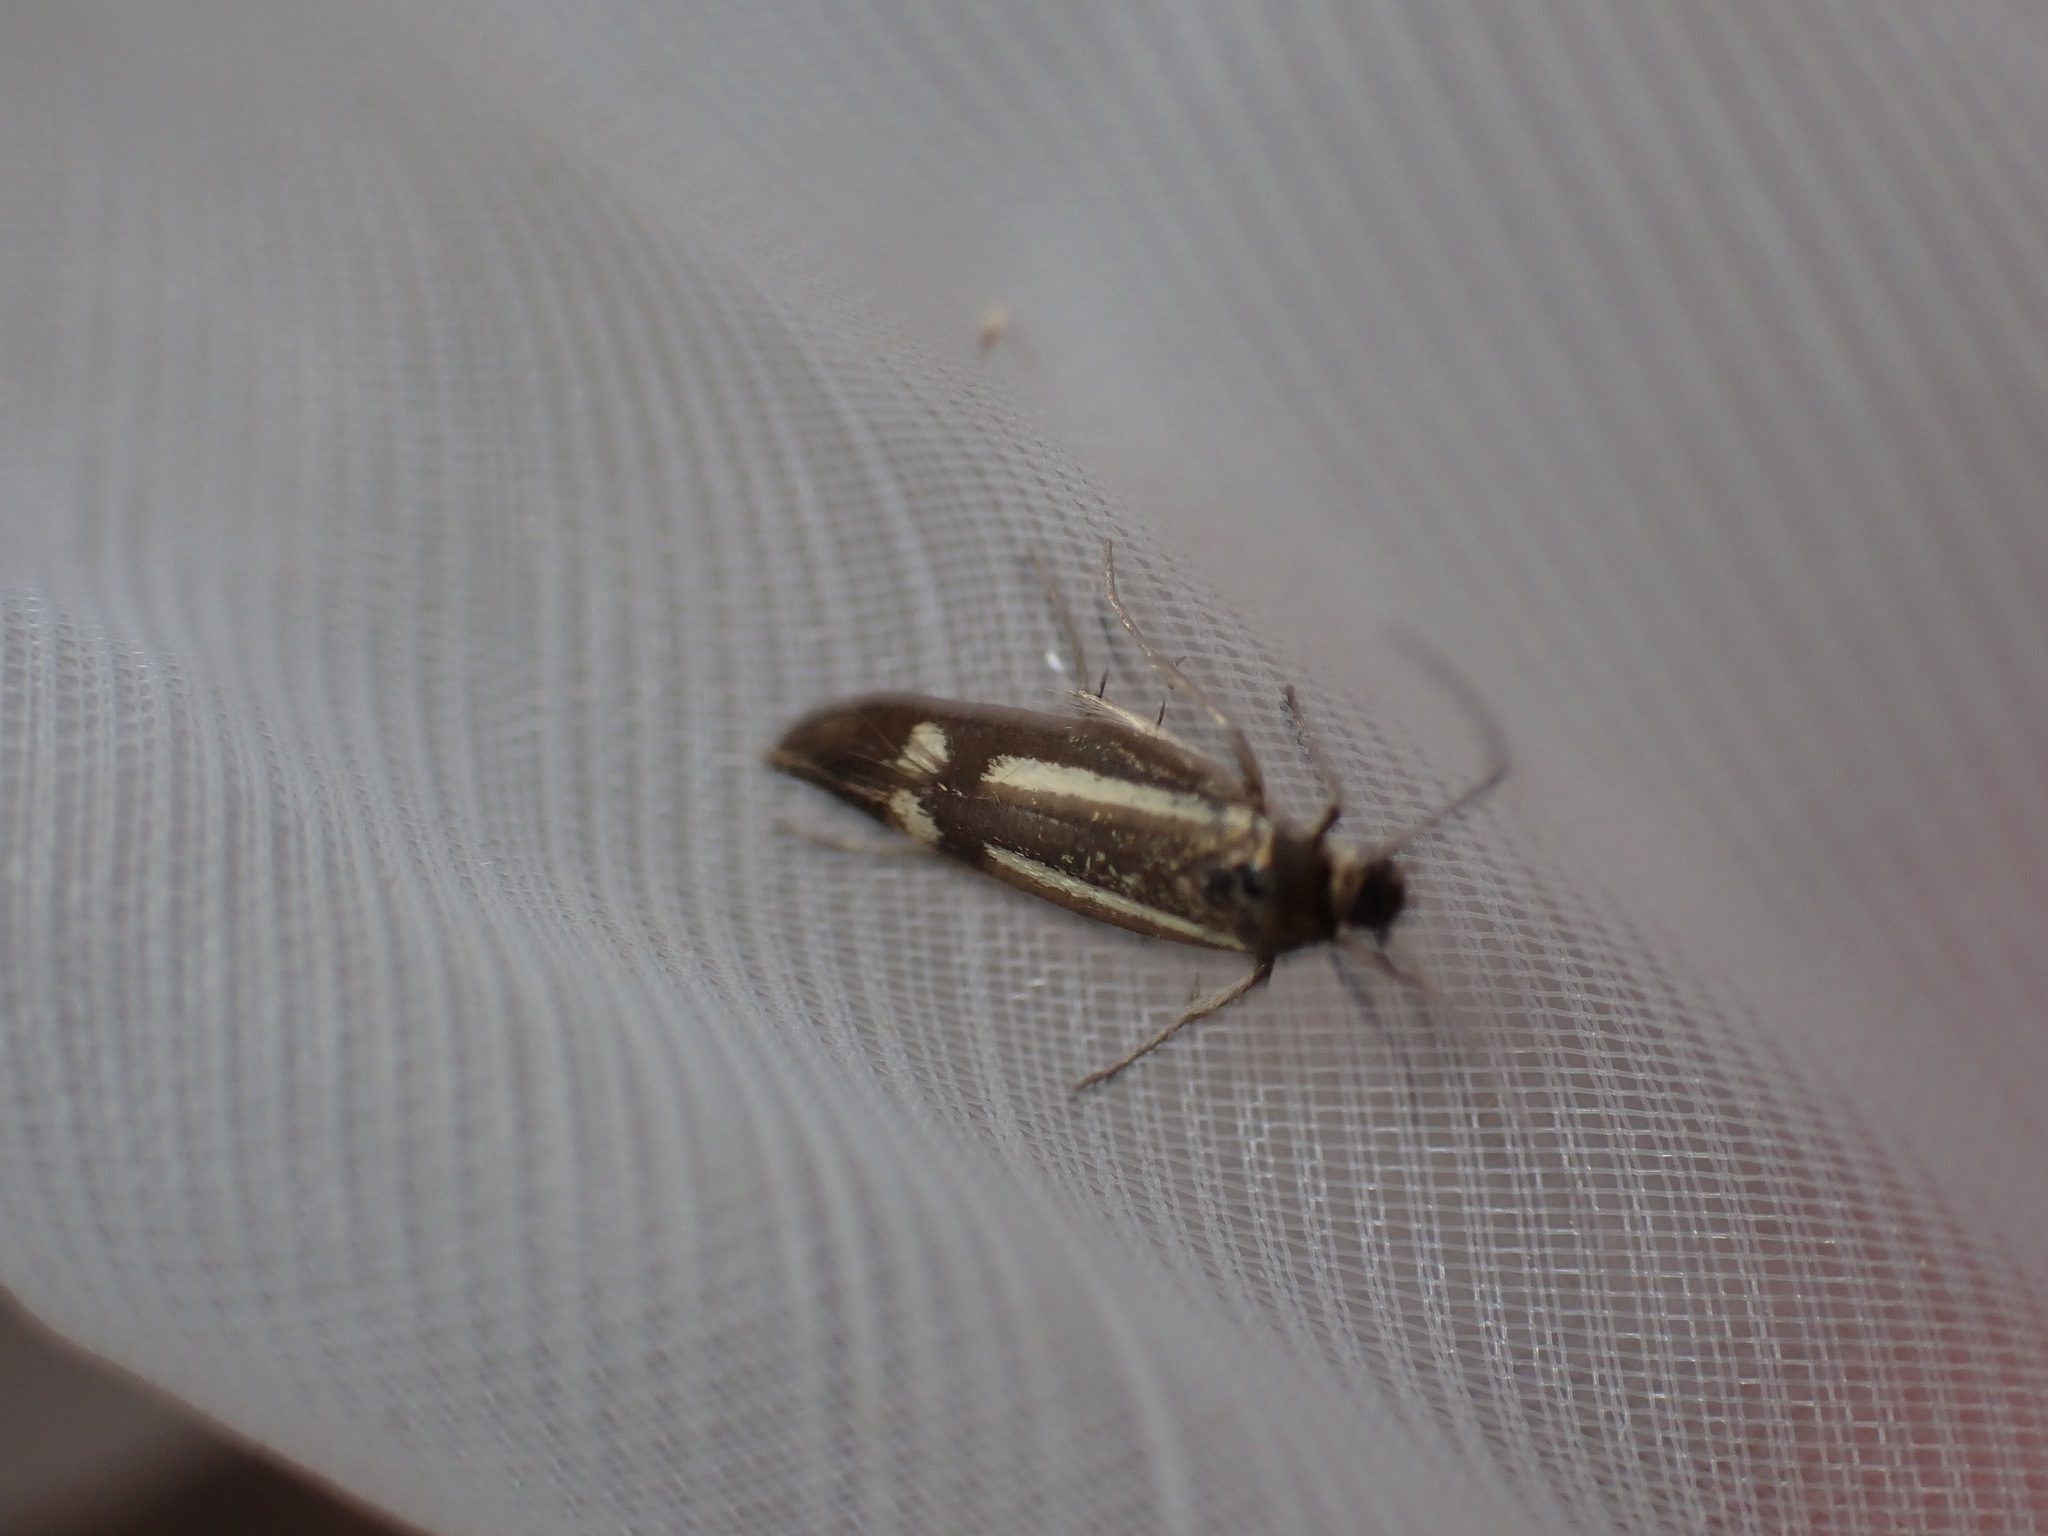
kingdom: Animalia
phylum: Arthropoda
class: Insecta
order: Lepidoptera
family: Oecophoridae
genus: Dafa
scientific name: Dafa Esperia sulphurella
